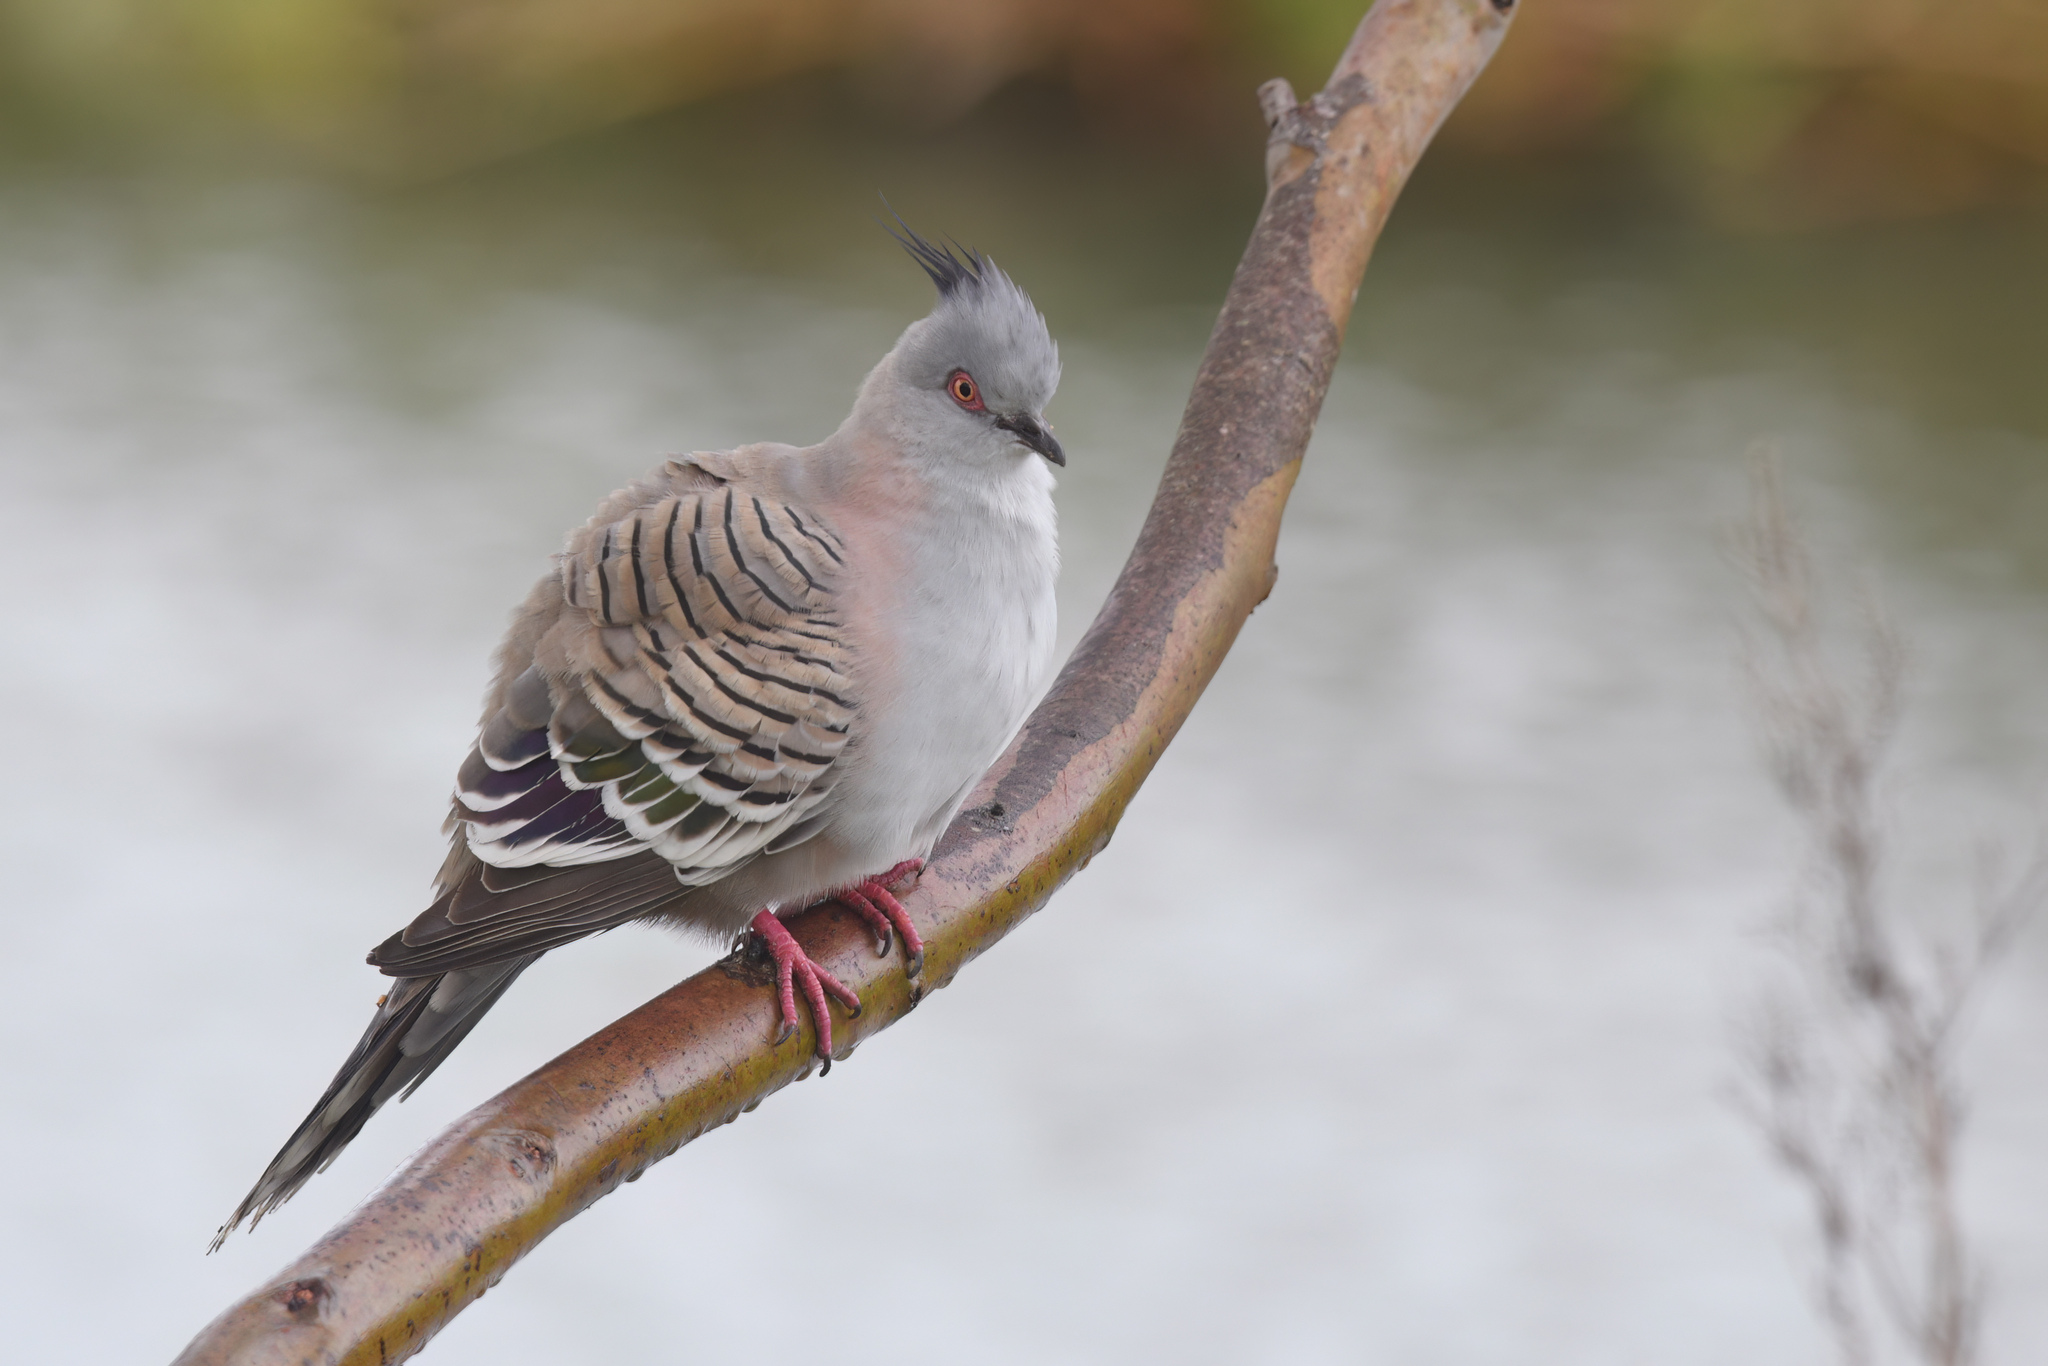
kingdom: Animalia
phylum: Chordata
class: Aves
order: Columbiformes
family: Columbidae
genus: Ocyphaps
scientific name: Ocyphaps lophotes
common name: Crested pigeon
